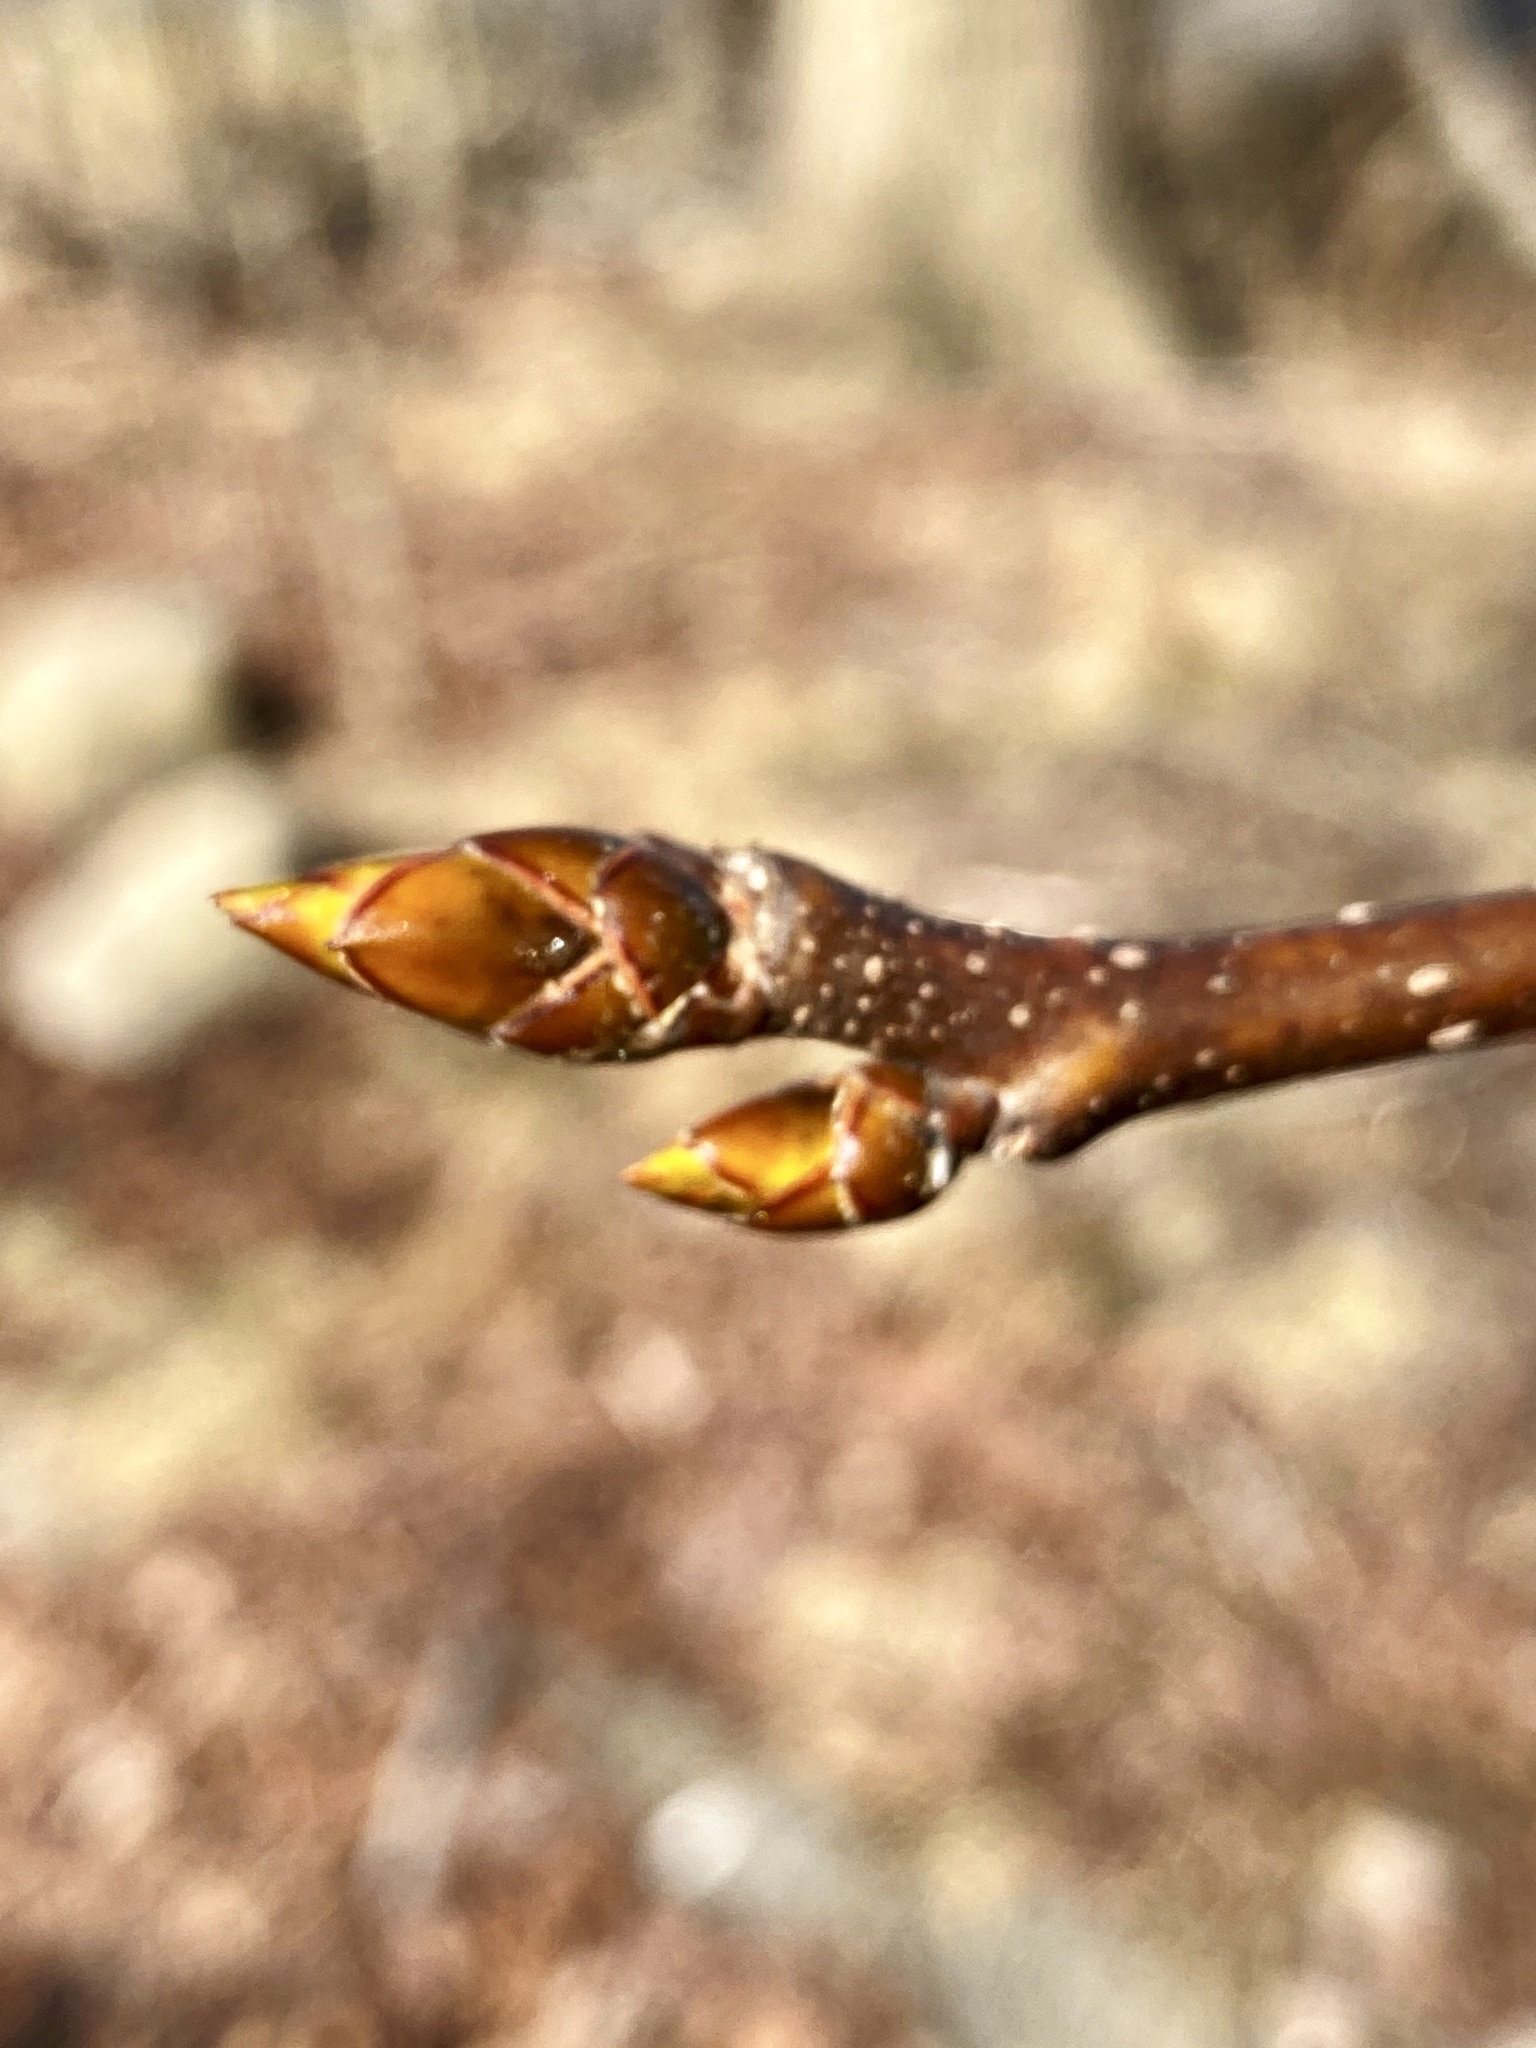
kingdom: Plantae
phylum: Tracheophyta
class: Magnoliopsida
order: Saxifragales
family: Altingiaceae
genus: Liquidambar
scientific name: Liquidambar styraciflua
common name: Sweet gum
